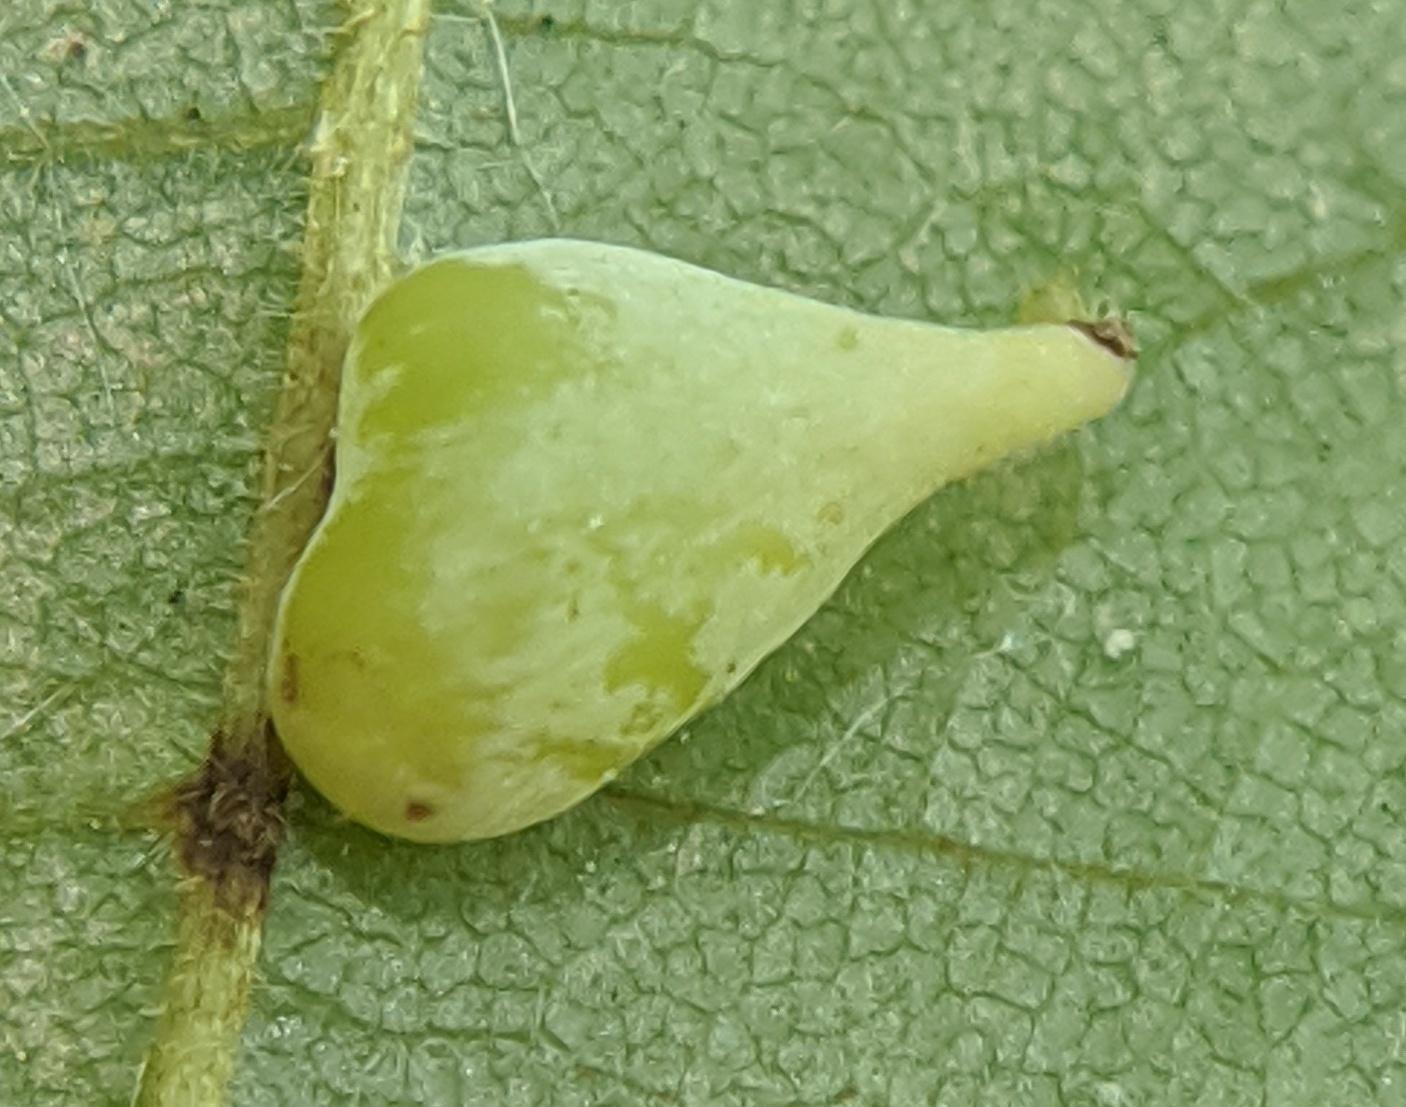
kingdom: Animalia
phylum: Arthropoda
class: Insecta
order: Diptera
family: Cecidomyiidae
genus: Caryomyia
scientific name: Caryomyia caryaecola
